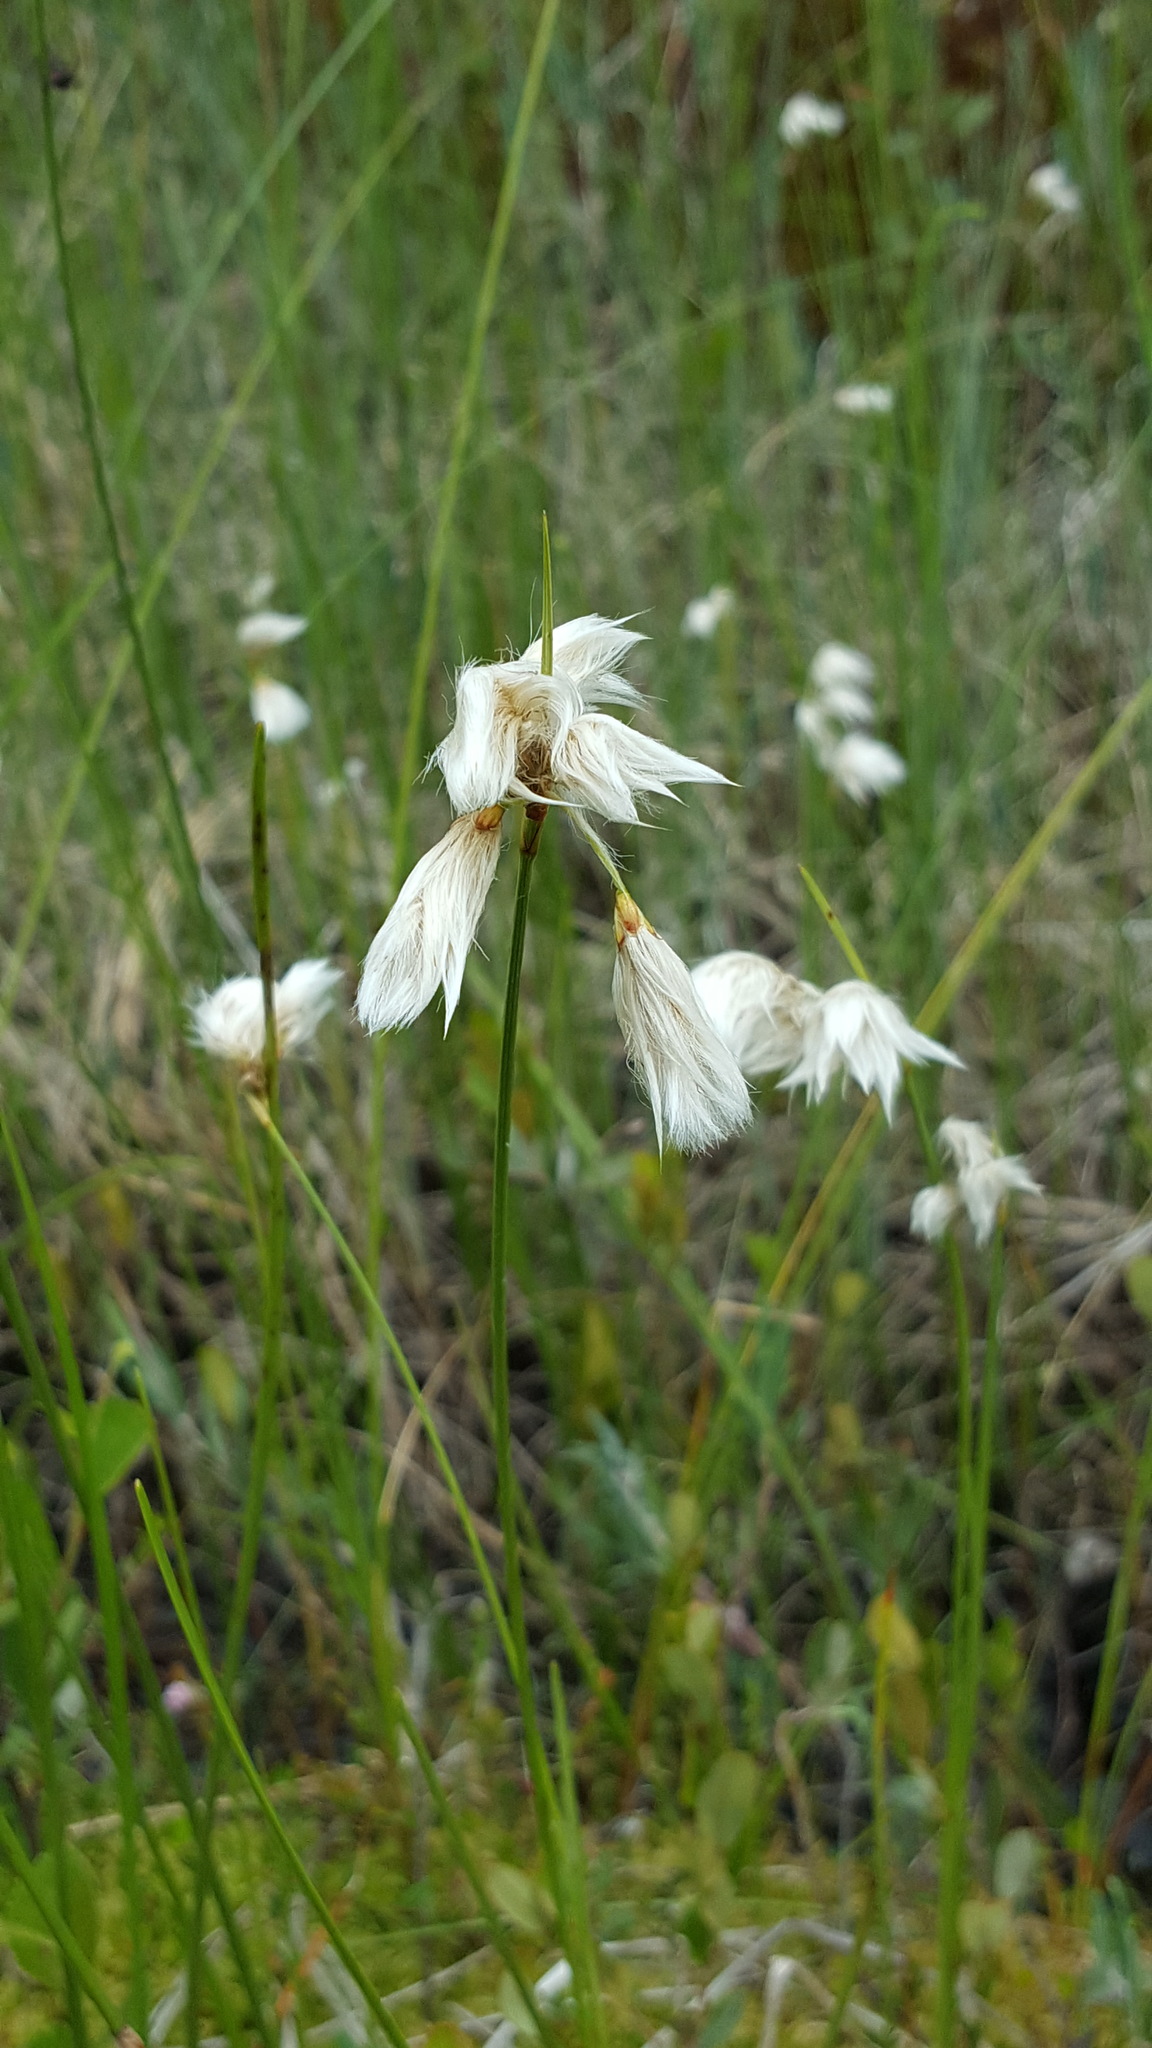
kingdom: Plantae
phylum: Tracheophyta
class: Liliopsida
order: Poales
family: Cyperaceae
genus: Eriophorum
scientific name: Eriophorum angustifolium
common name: Common cottongrass
